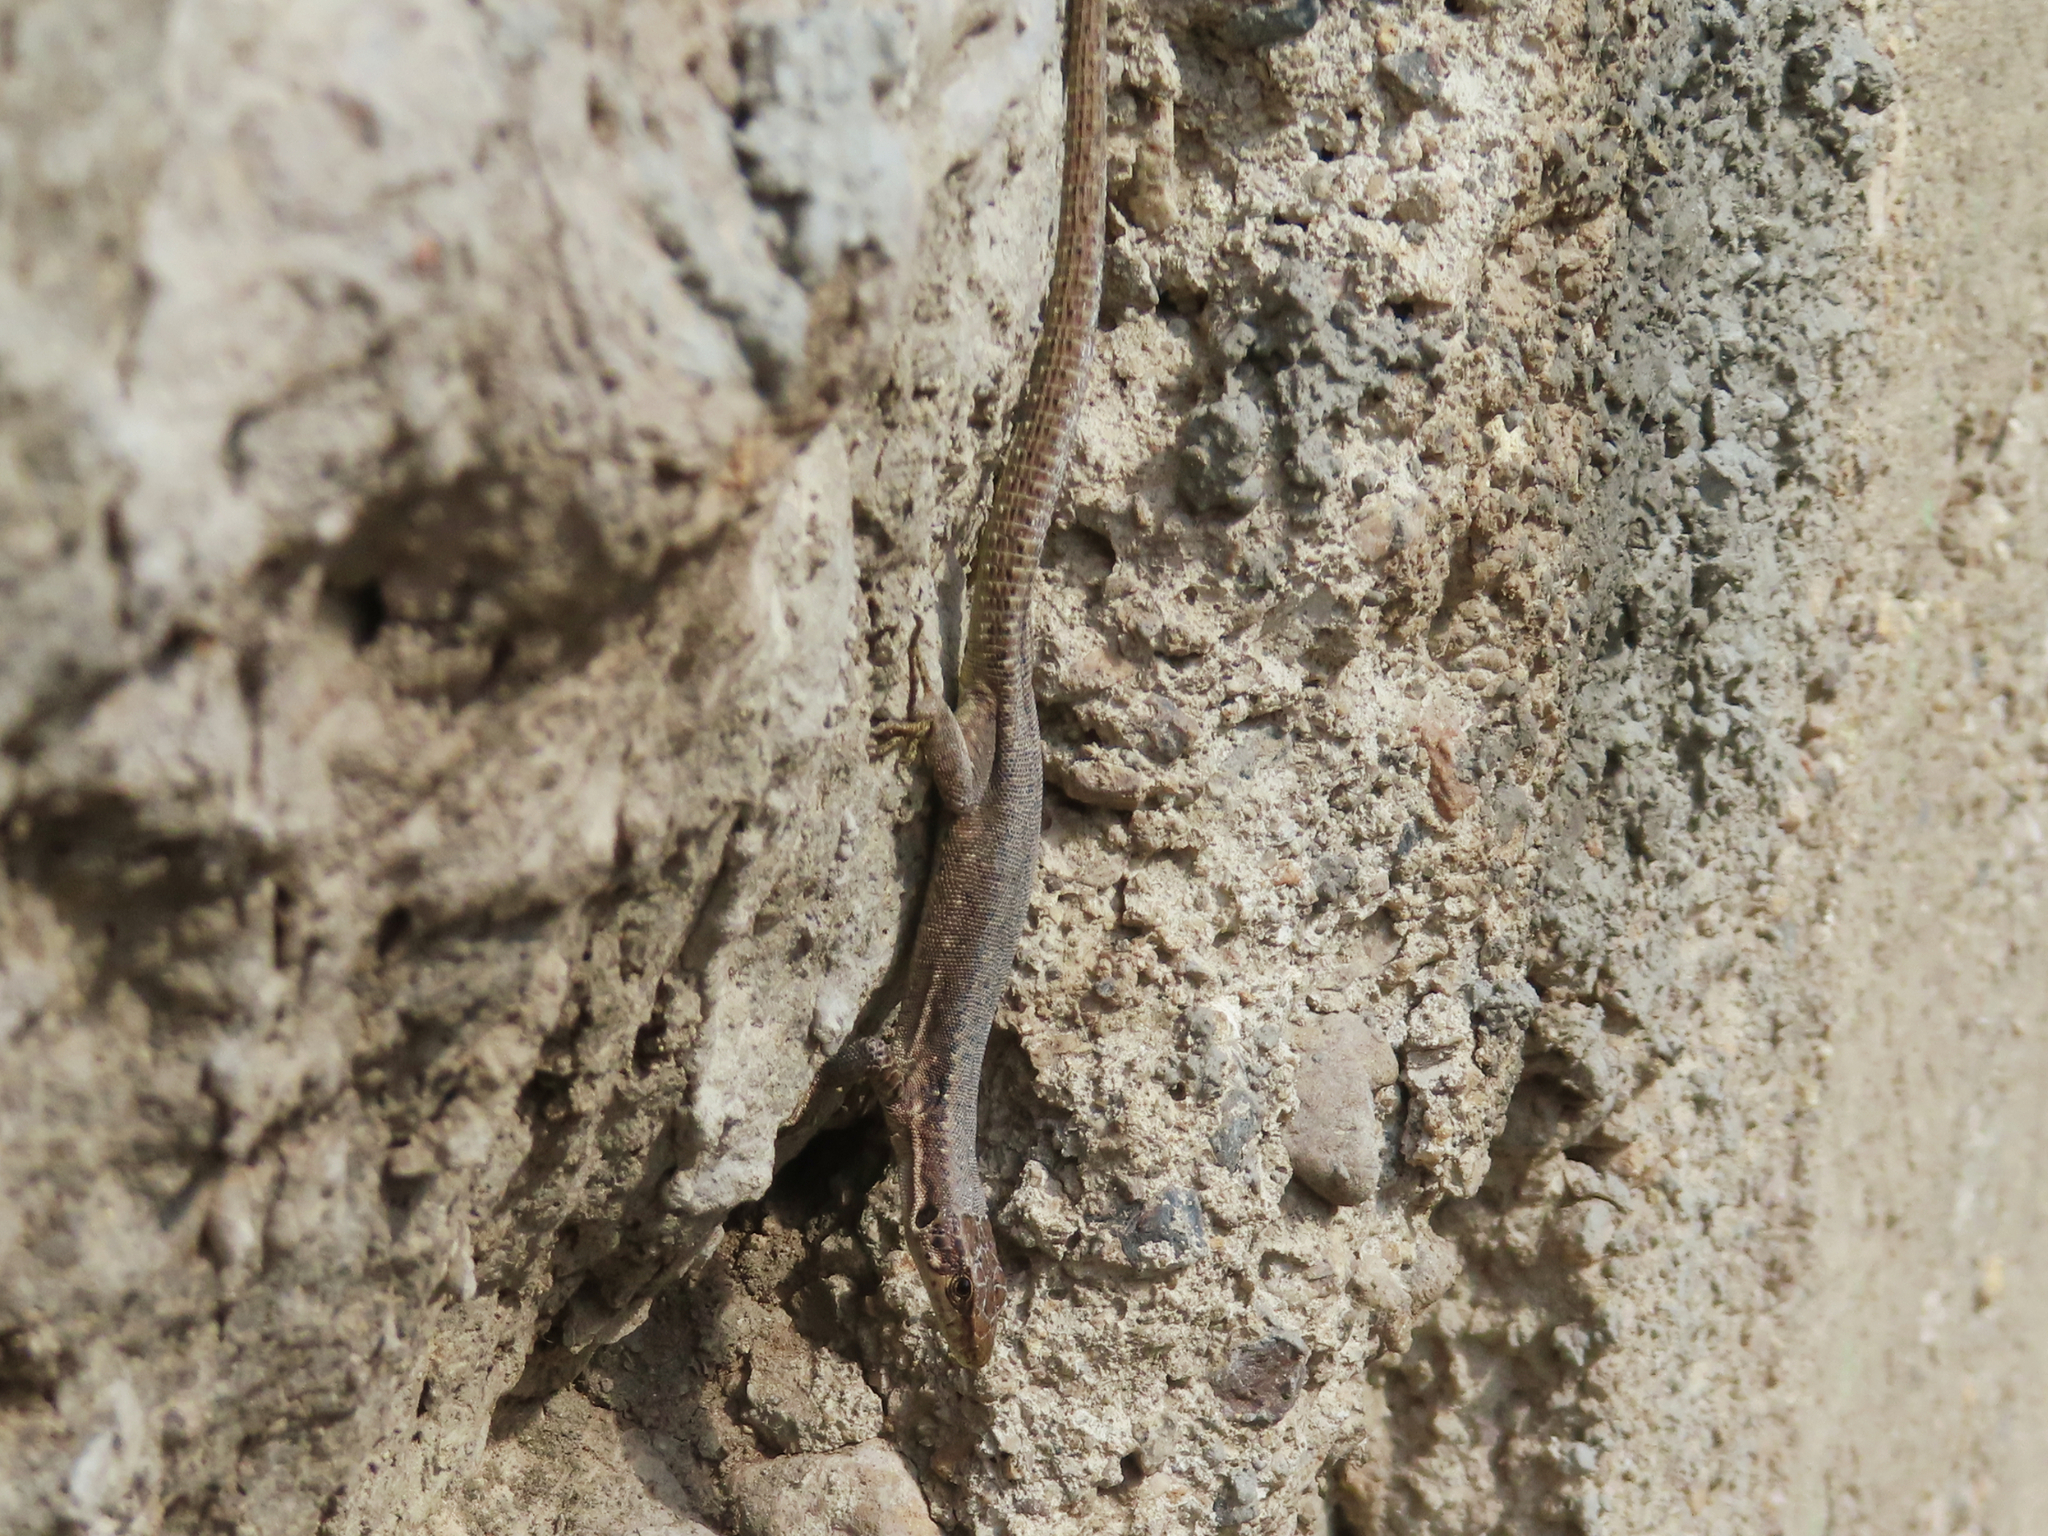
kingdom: Animalia
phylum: Chordata
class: Squamata
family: Lacertidae
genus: Darevskia
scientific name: Darevskia armeniaca
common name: Armenian lizard
